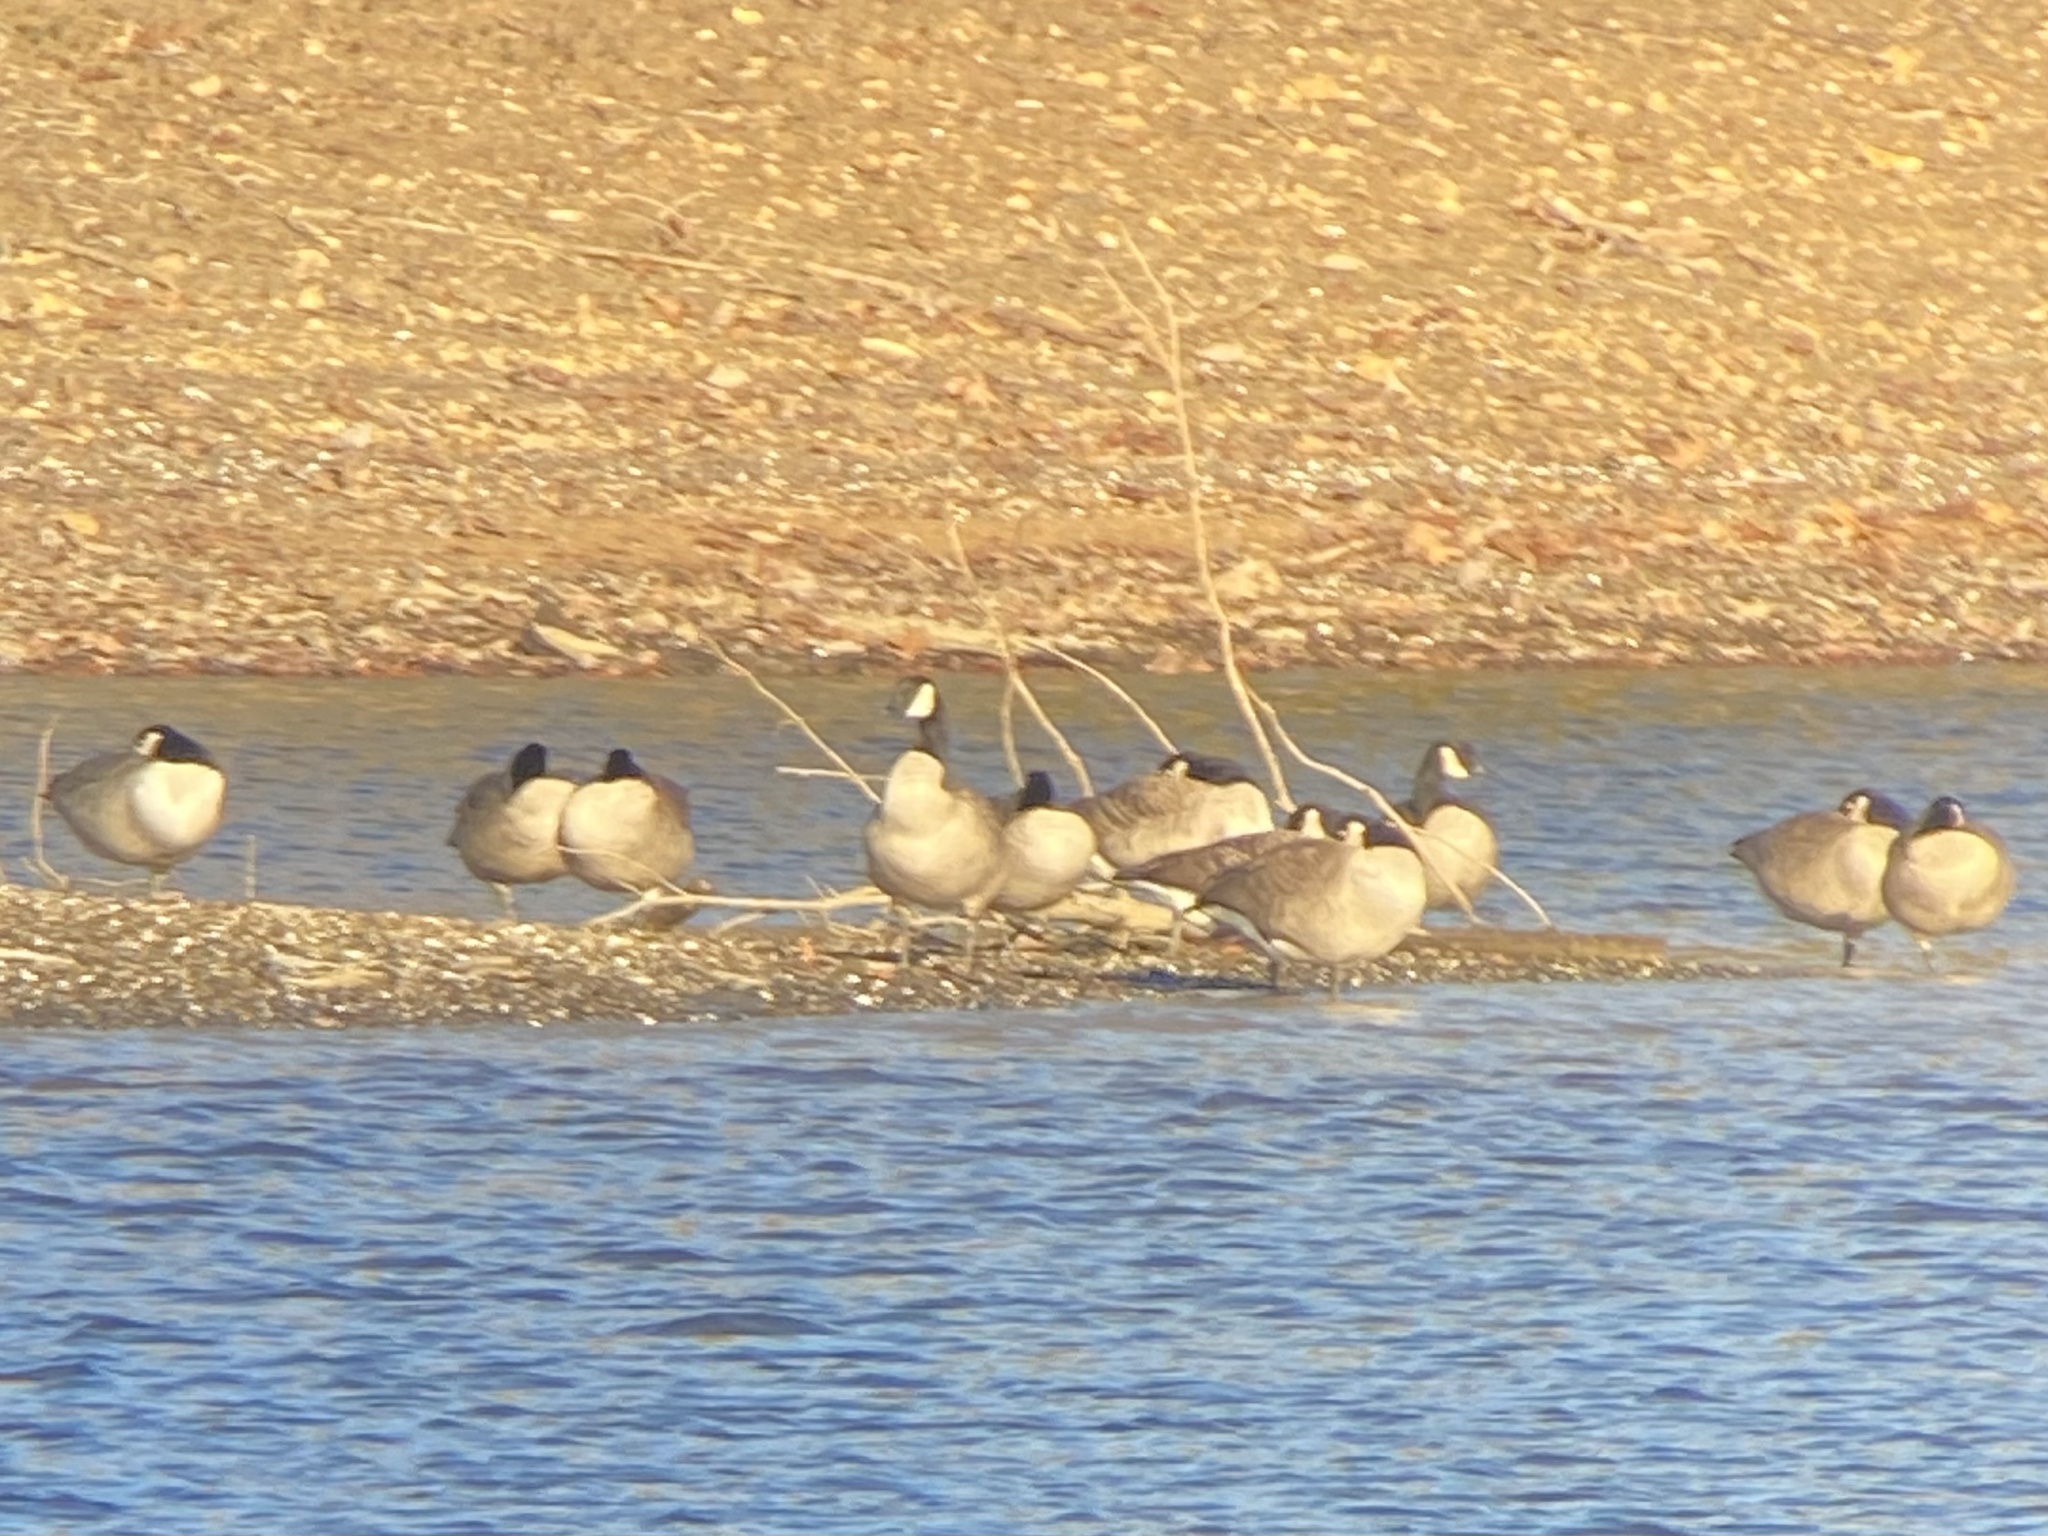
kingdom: Animalia
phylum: Chordata
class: Aves
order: Anseriformes
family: Anatidae
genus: Branta
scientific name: Branta canadensis
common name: Canada goose
